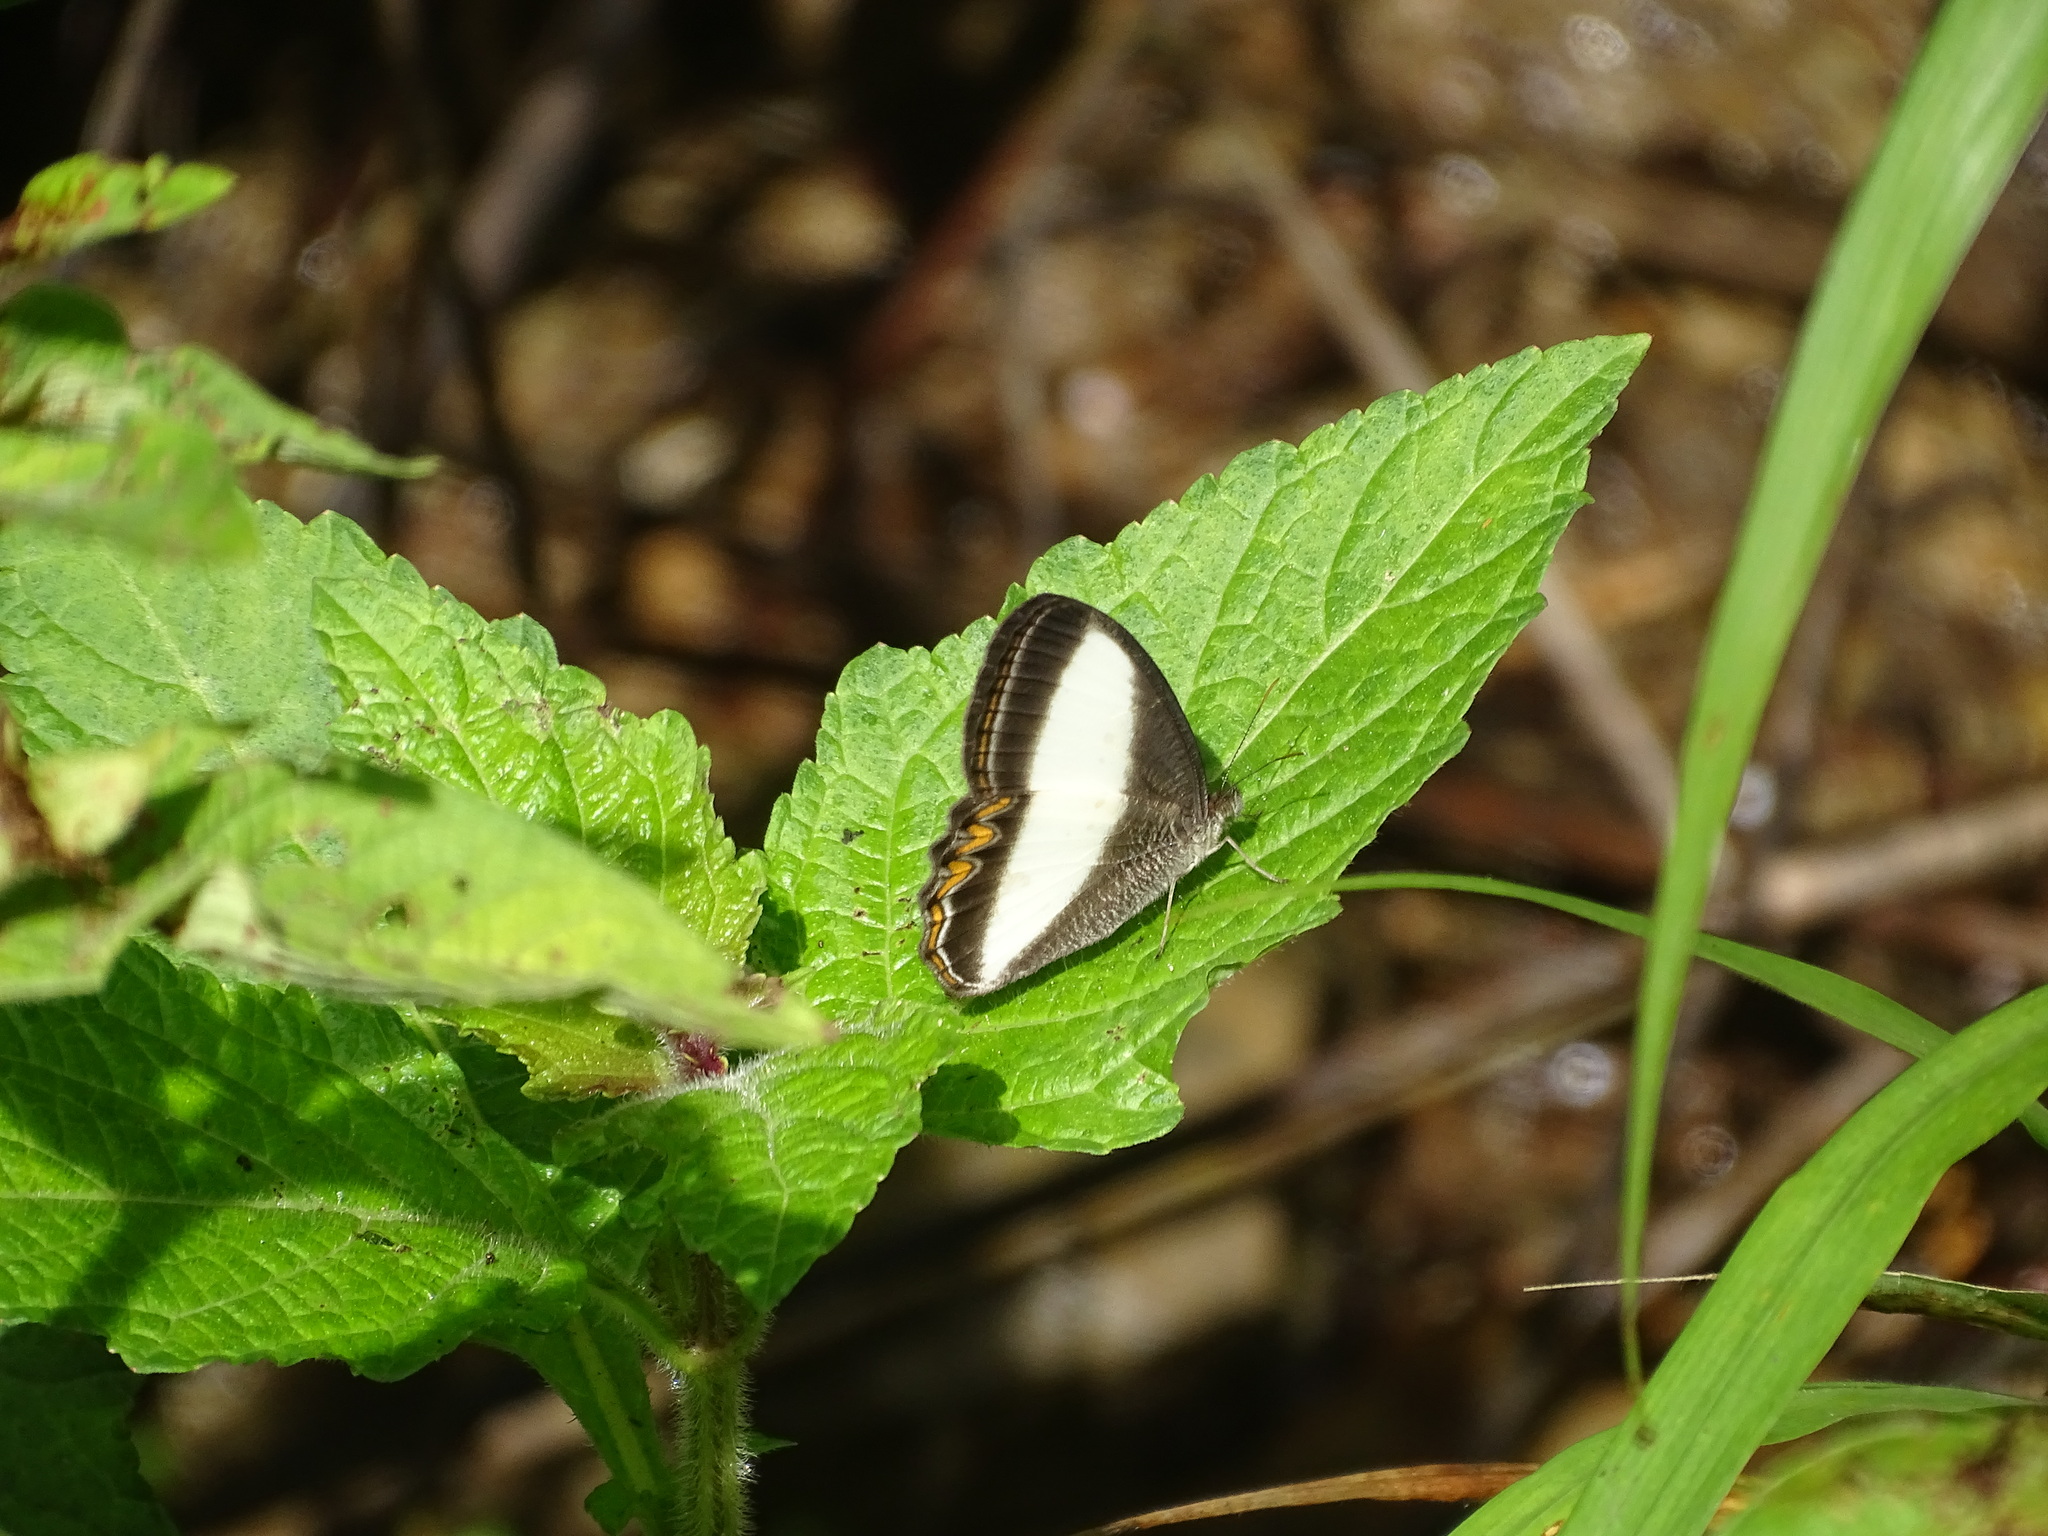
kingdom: Animalia
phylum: Arthropoda
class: Insecta
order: Lepidoptera
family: Nymphalidae
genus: Oressinoma
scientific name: Oressinoma typhla
